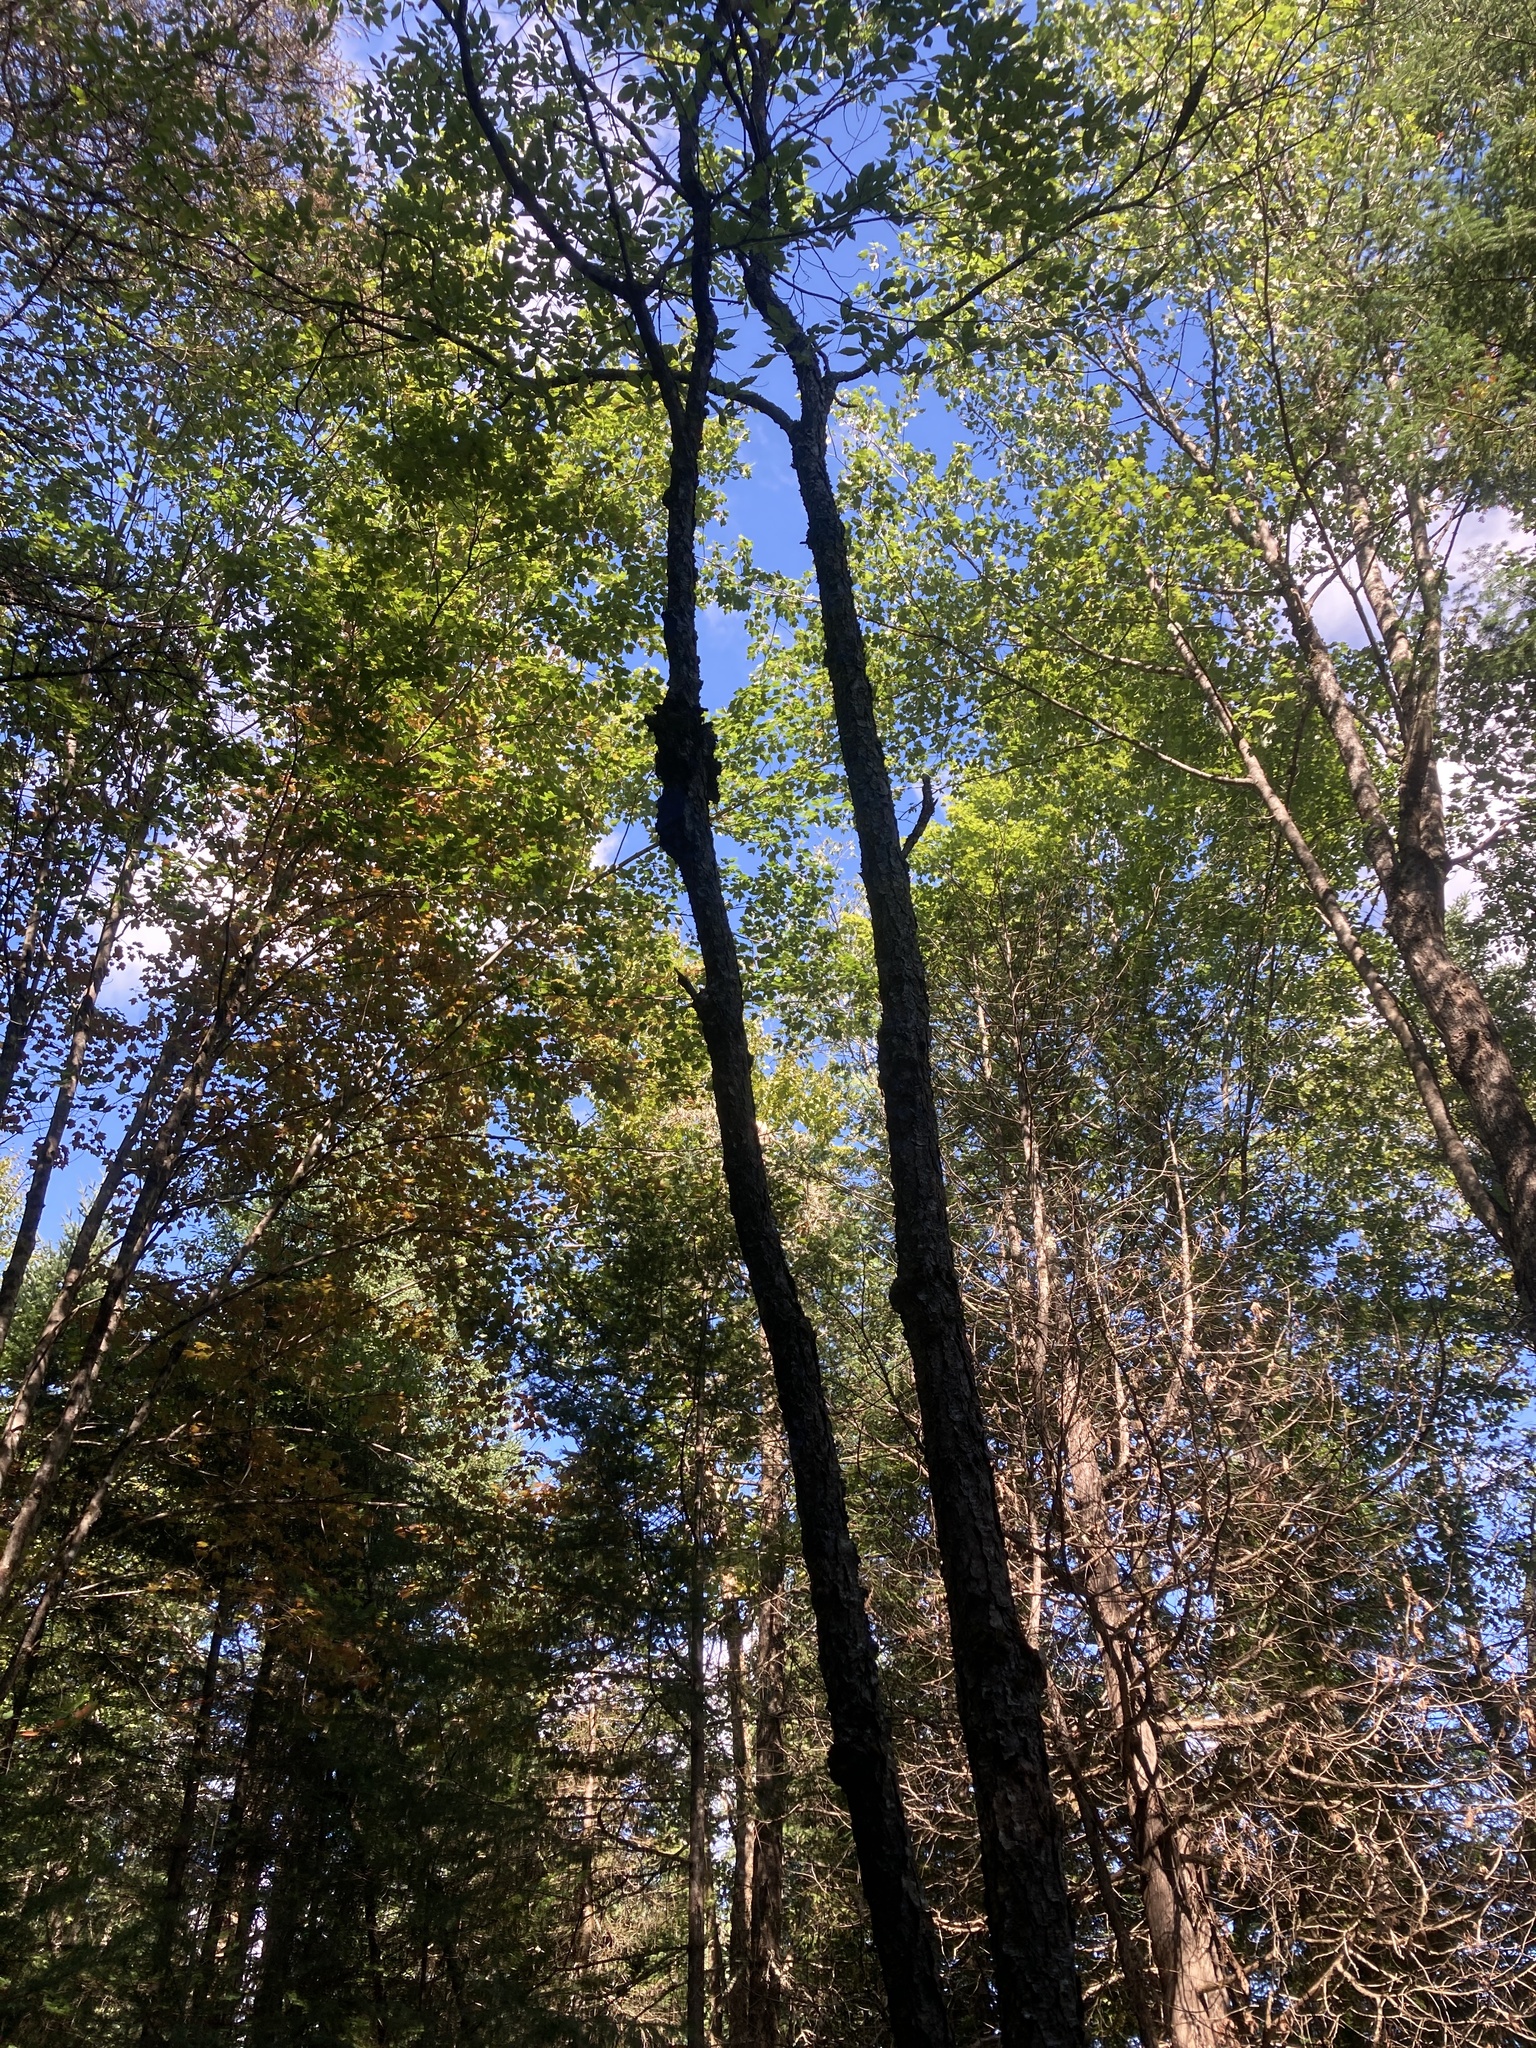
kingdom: Plantae
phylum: Tracheophyta
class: Magnoliopsida
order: Rosales
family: Rosaceae
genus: Prunus
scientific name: Prunus serotina
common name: Black cherry
